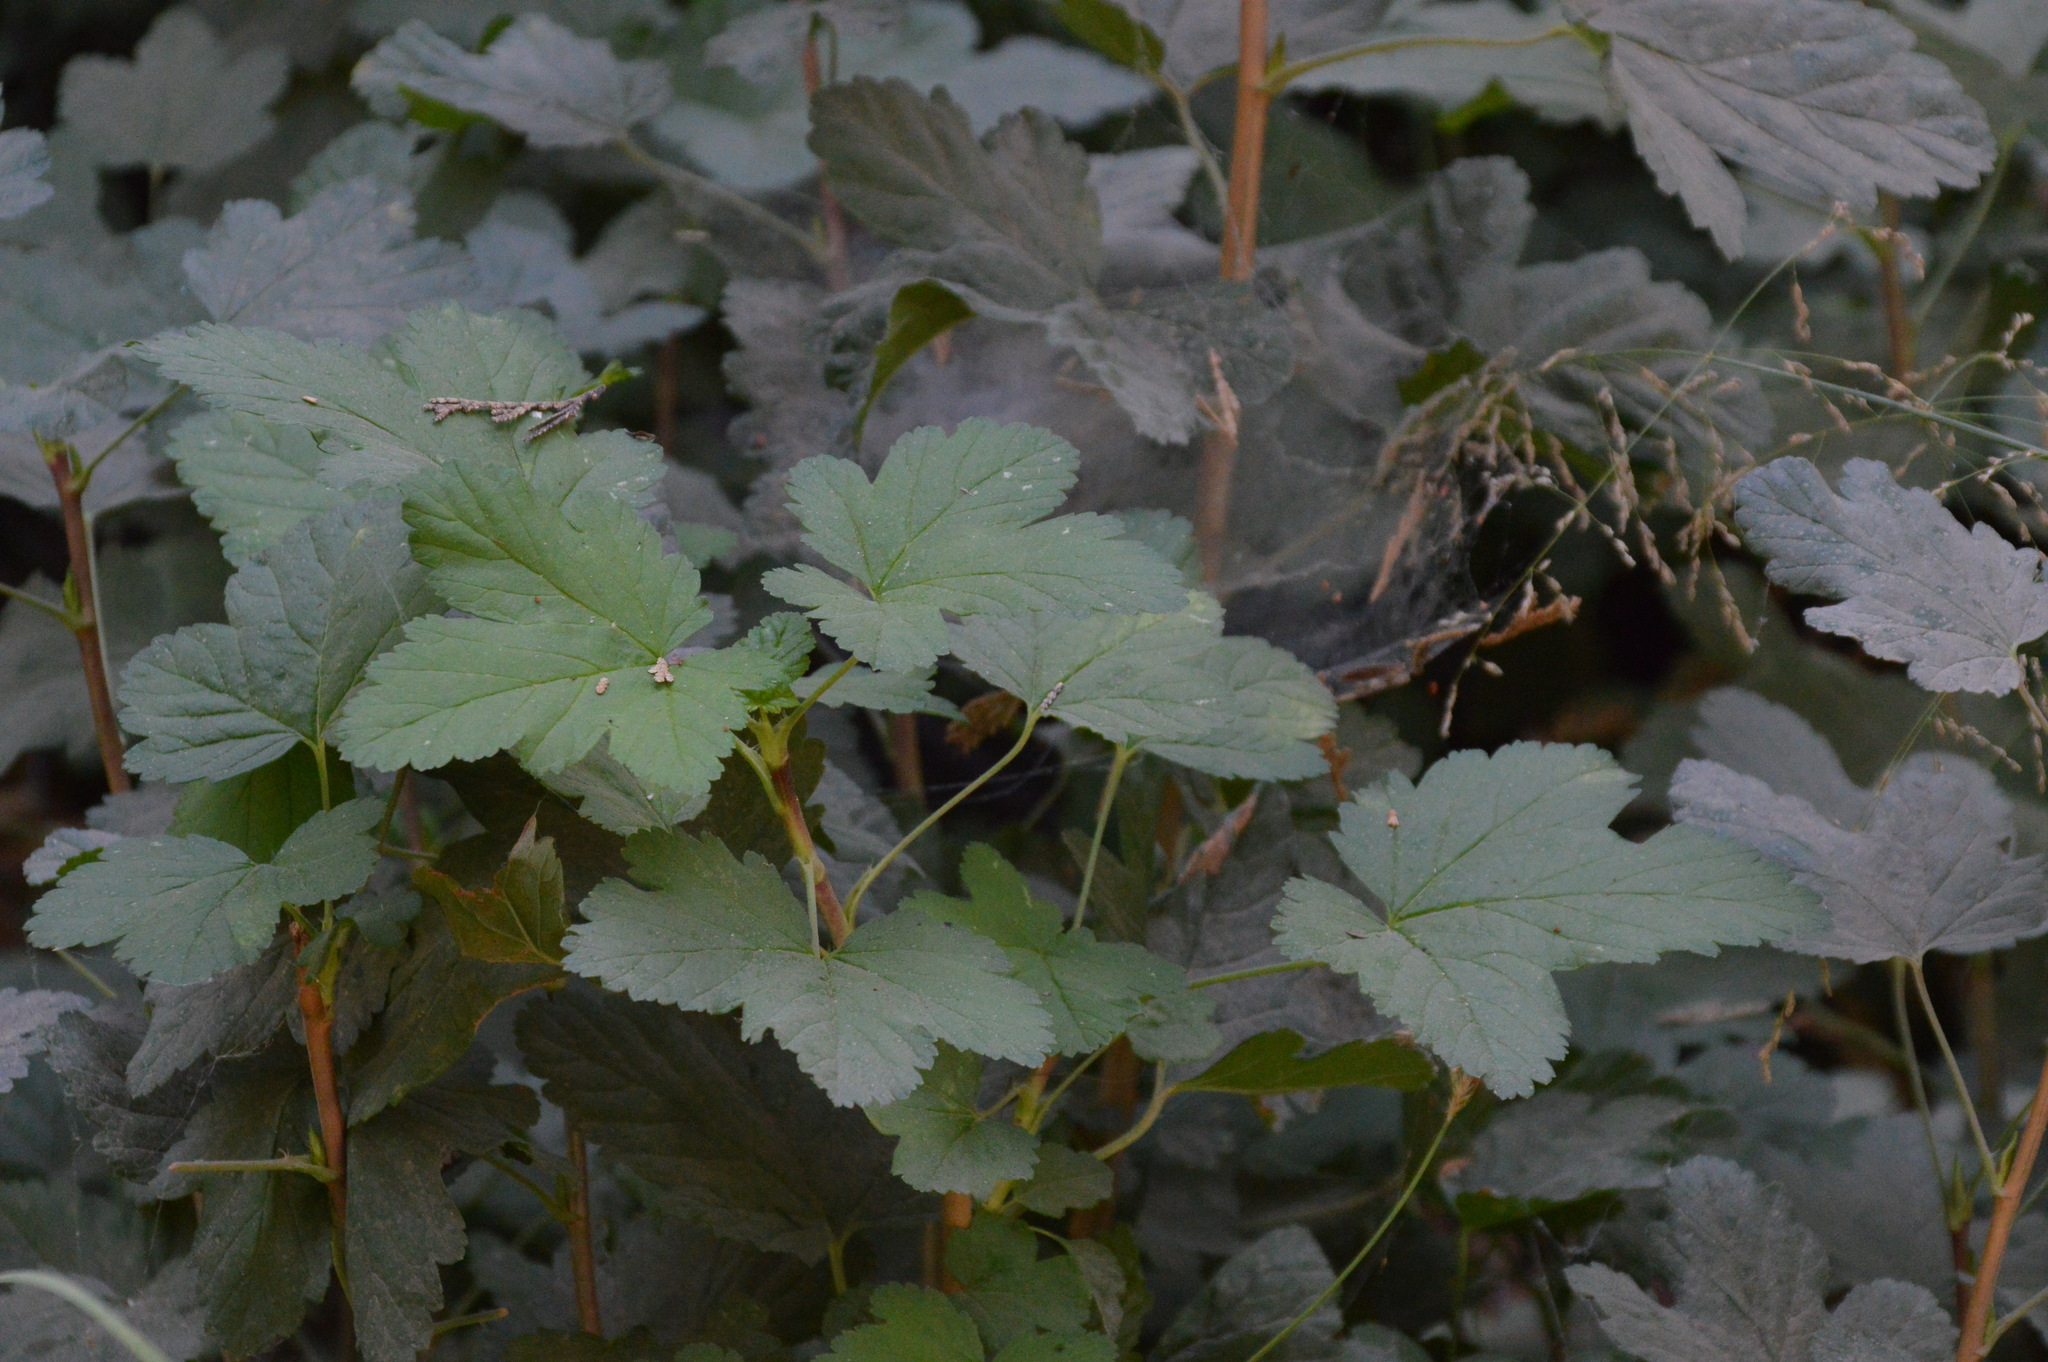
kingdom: Plantae
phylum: Tracheophyta
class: Magnoliopsida
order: Saxifragales
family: Grossulariaceae
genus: Ribes
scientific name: Ribes nevadense
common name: Mountain pink currant
